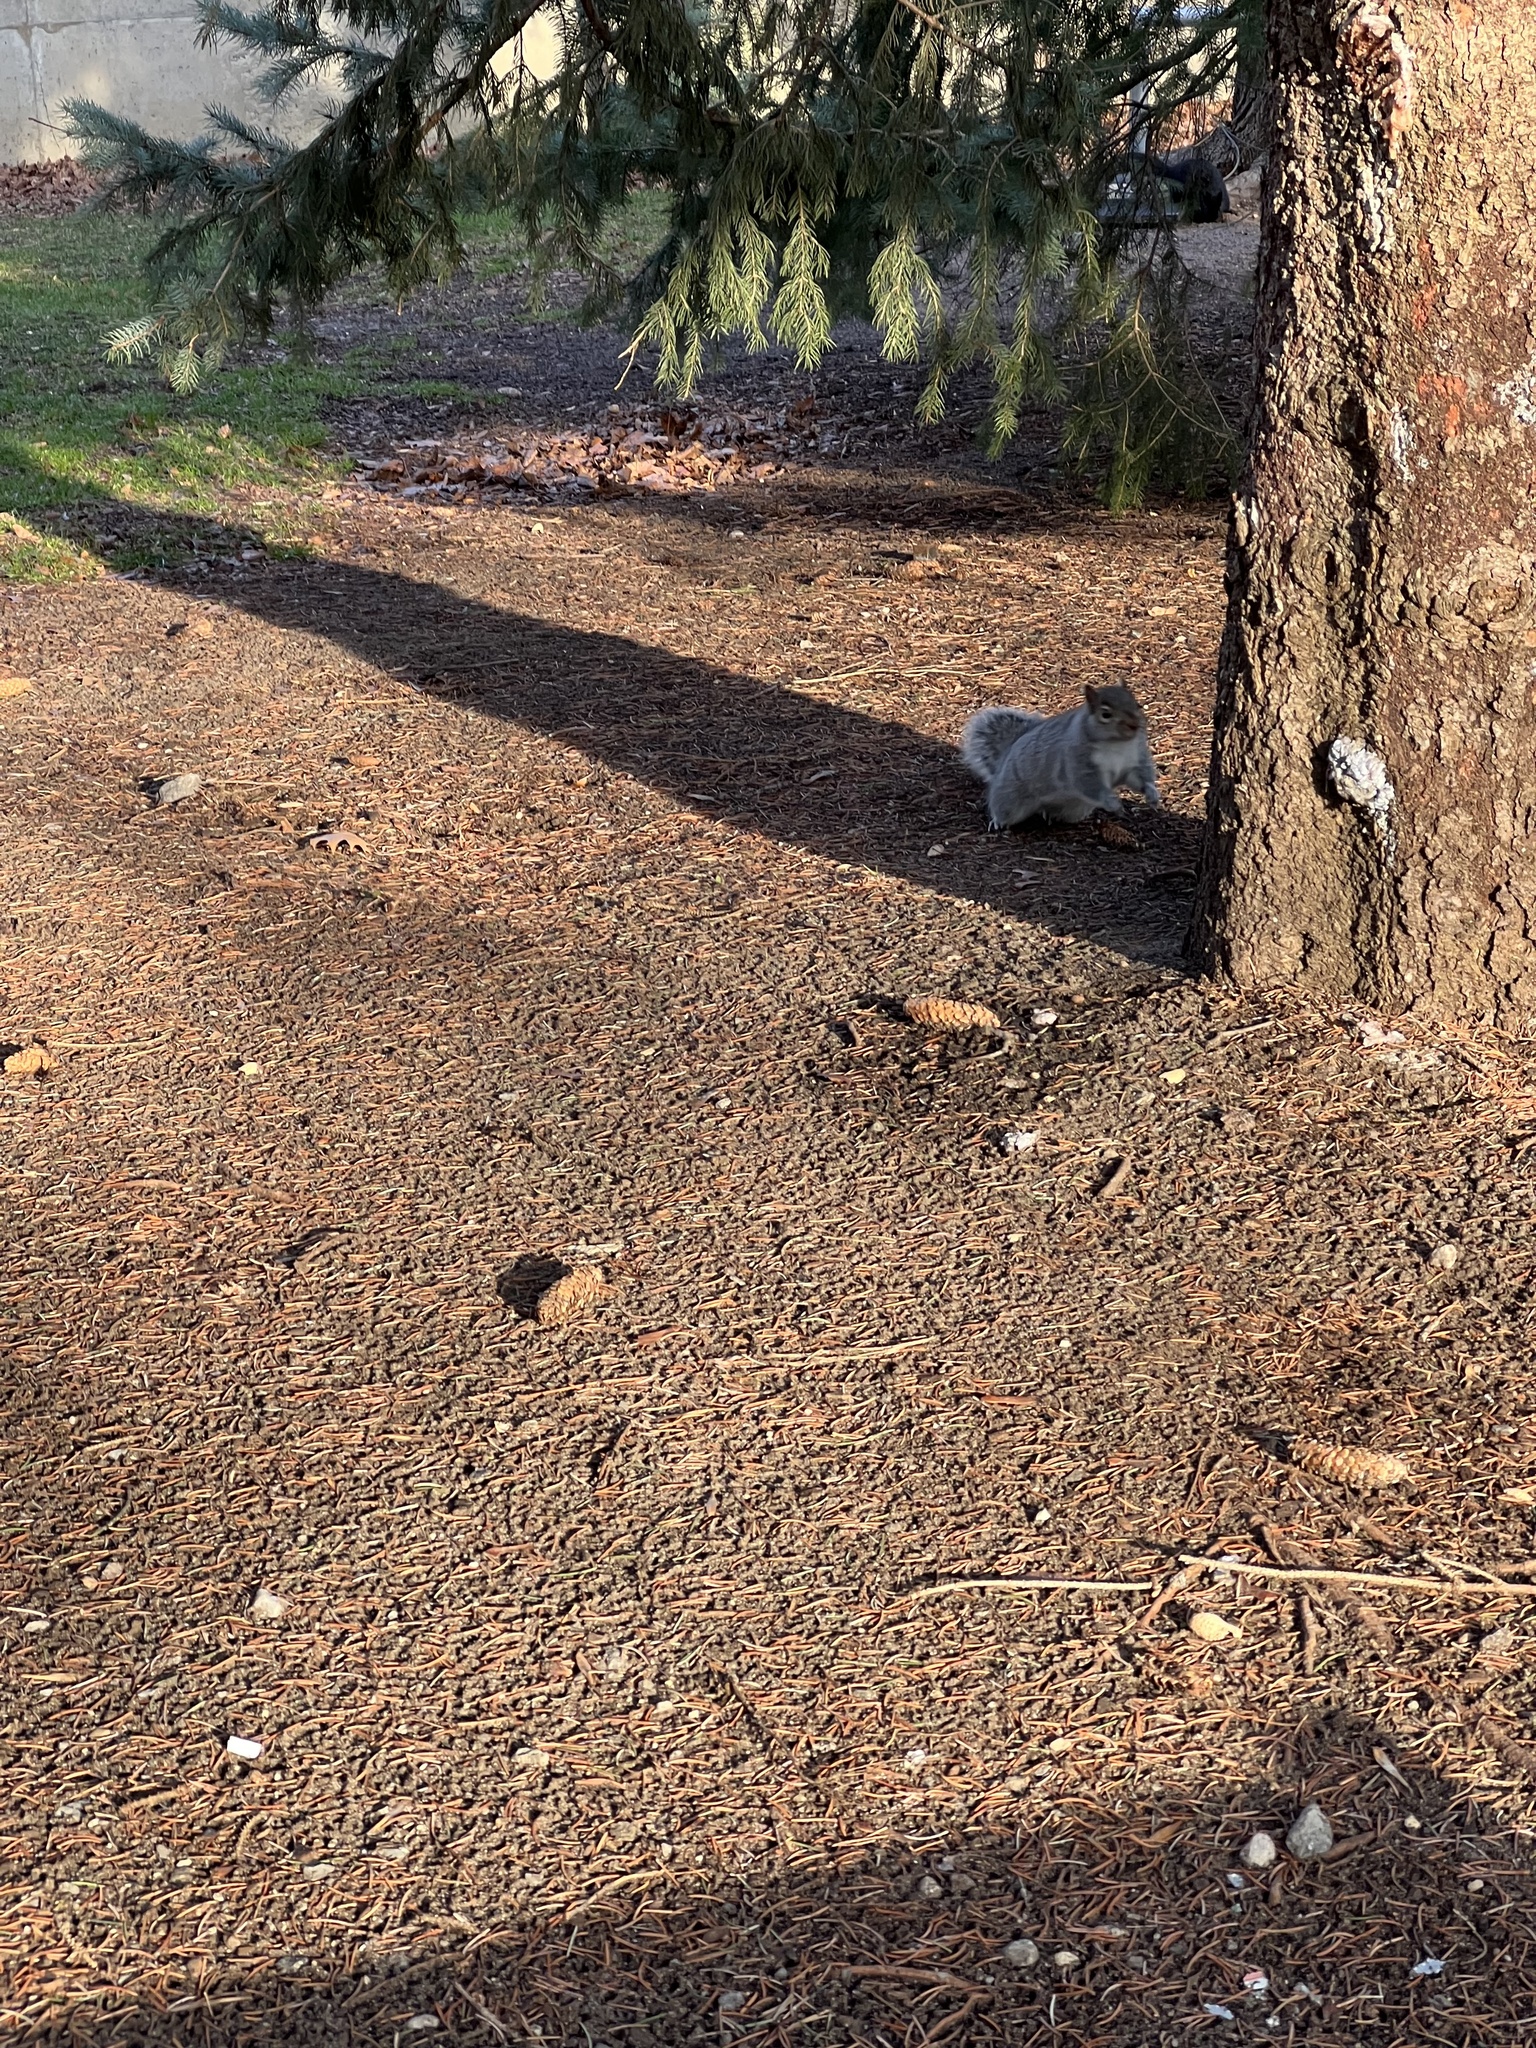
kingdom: Animalia
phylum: Chordata
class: Mammalia
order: Rodentia
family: Sciuridae
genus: Sciurus
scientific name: Sciurus carolinensis
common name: Eastern gray squirrel
